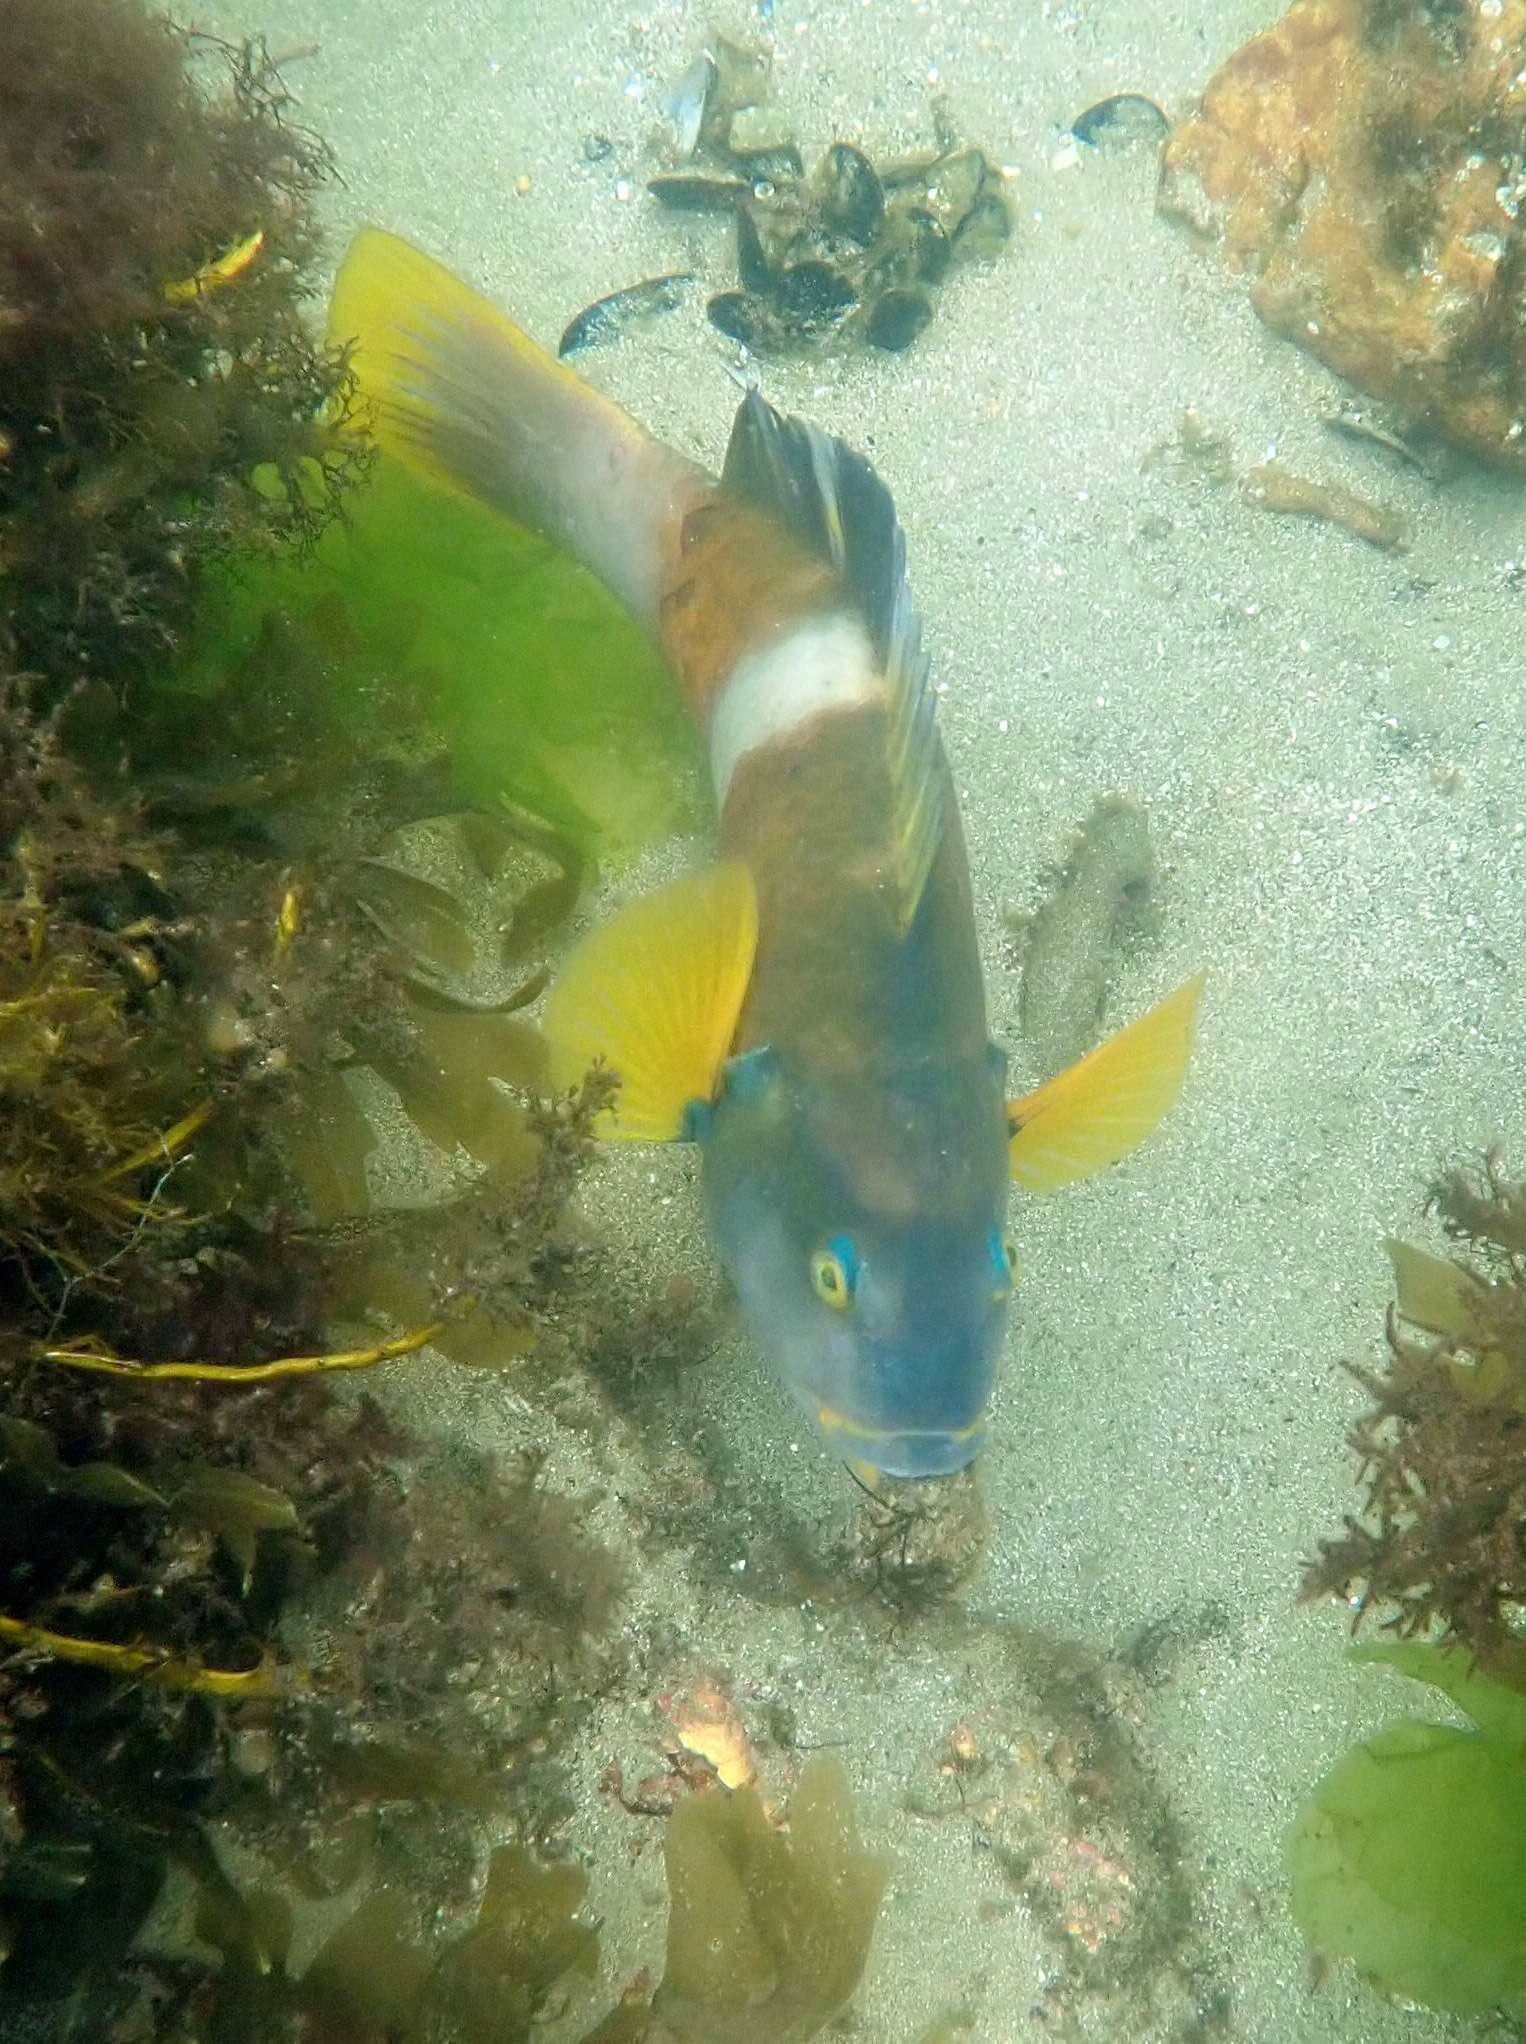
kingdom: Animalia
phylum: Chordata
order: Perciformes
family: Labridae
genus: Notolabrus
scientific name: Notolabrus tetricus
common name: Blue-throated parrotfish
